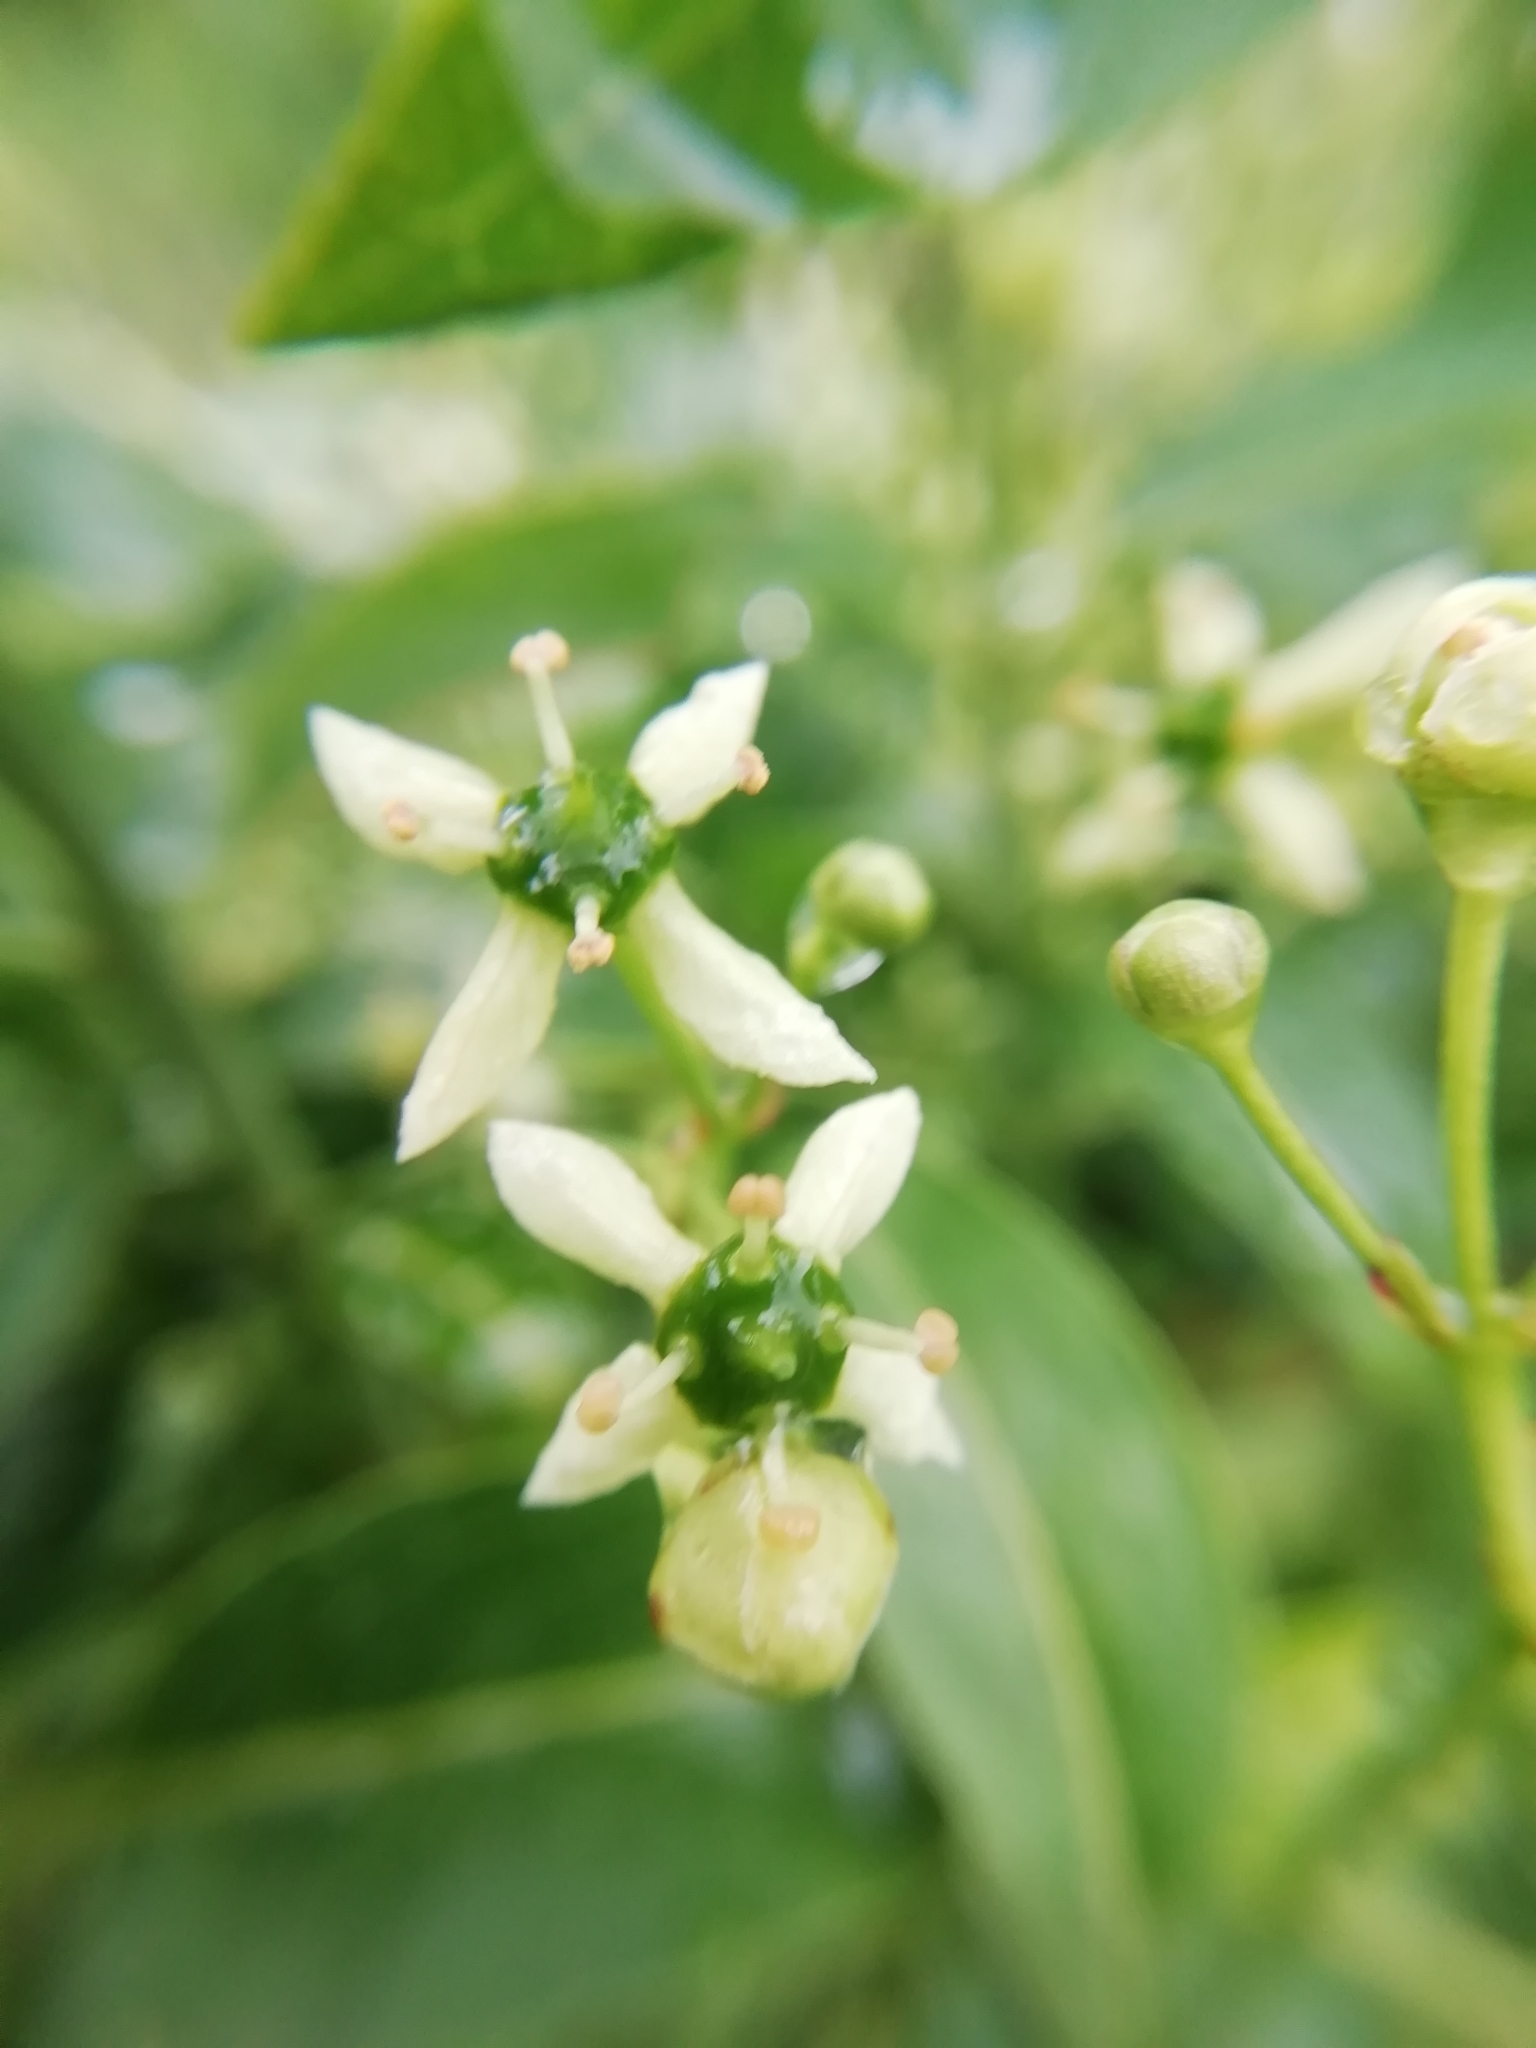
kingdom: Plantae
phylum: Tracheophyta
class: Magnoliopsida
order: Celastrales
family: Celastraceae
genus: Euonymus
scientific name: Euonymus europaeus
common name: Spindle
